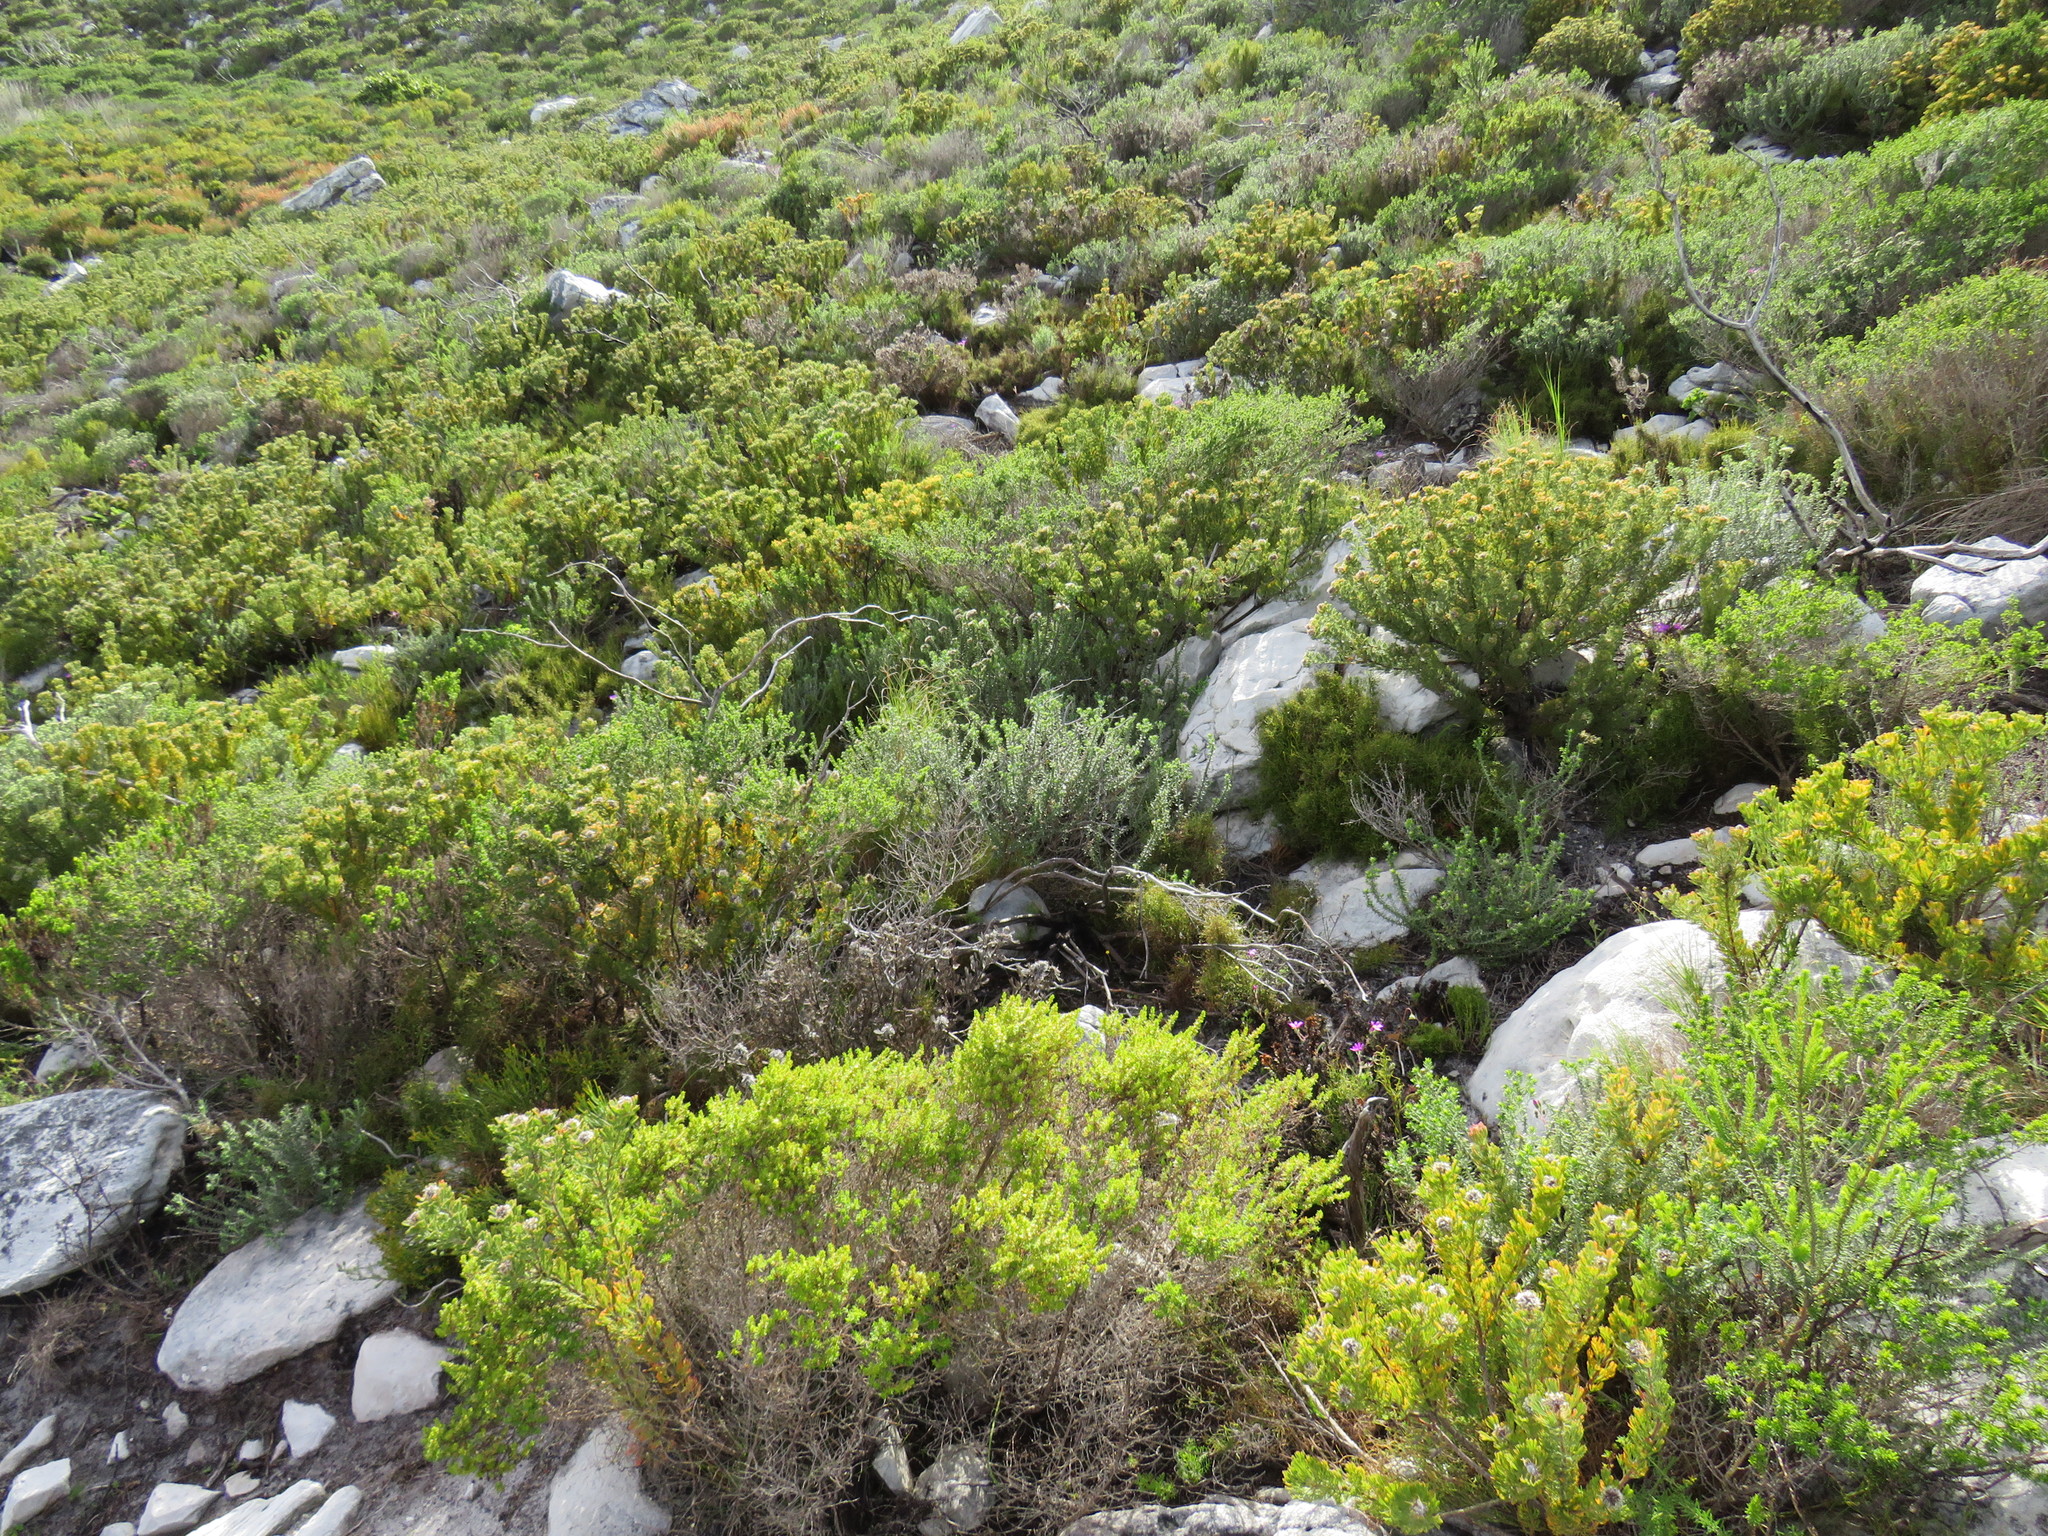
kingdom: Plantae
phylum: Tracheophyta
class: Magnoliopsida
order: Proteales
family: Proteaceae
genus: Serruria
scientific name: Serruria villosa
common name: Golden spiderhead
